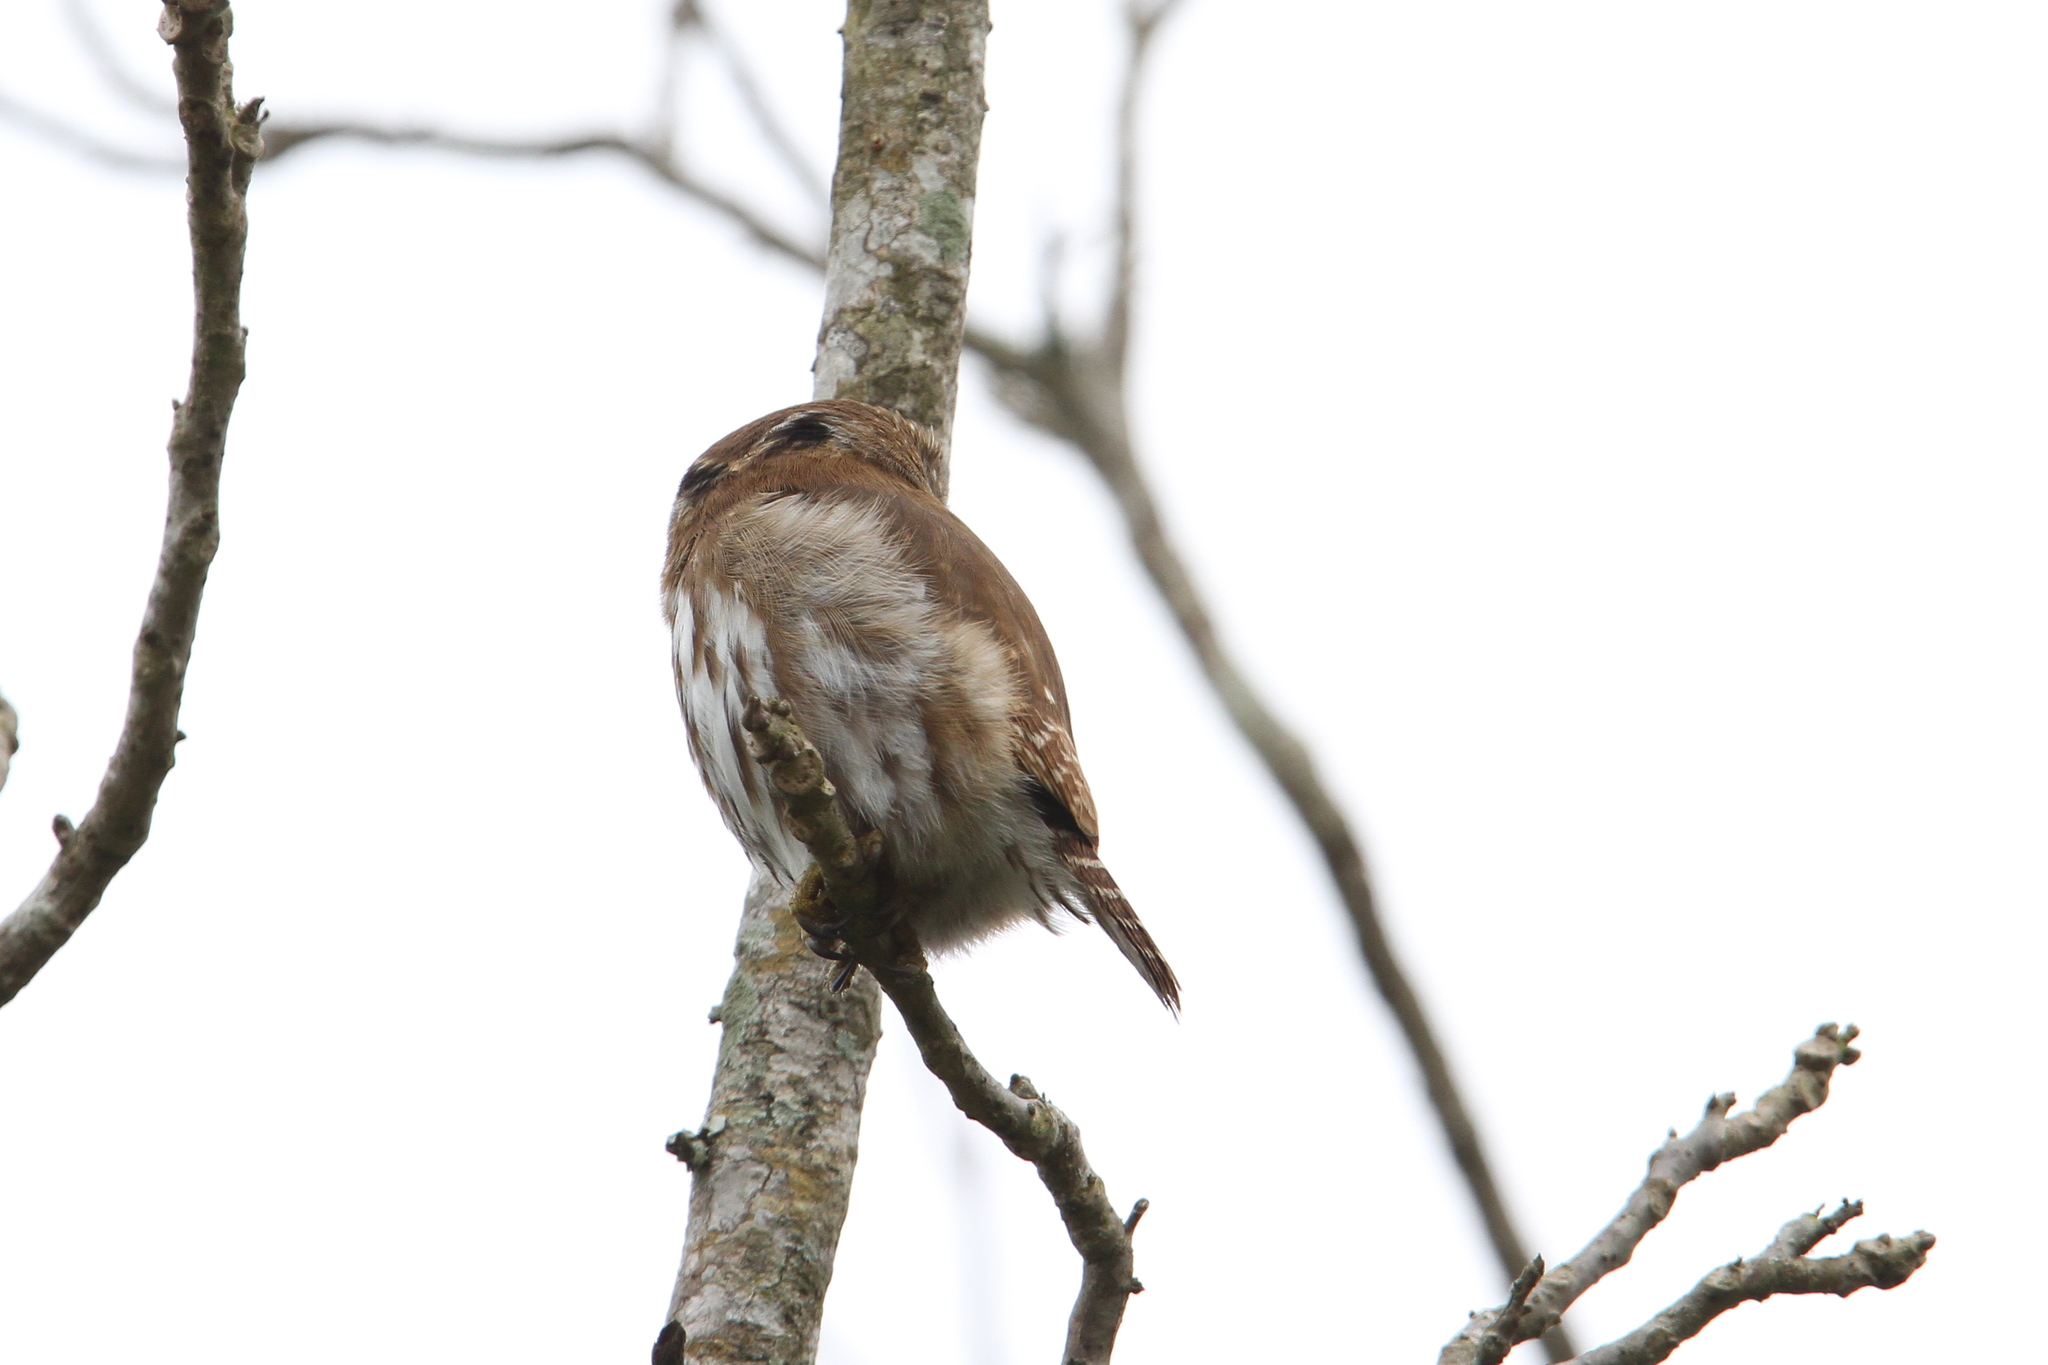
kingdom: Animalia
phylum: Chordata
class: Aves
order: Strigiformes
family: Strigidae
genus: Glaucidium
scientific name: Glaucidium brasilianum
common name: Ferruginous pygmy-owl
